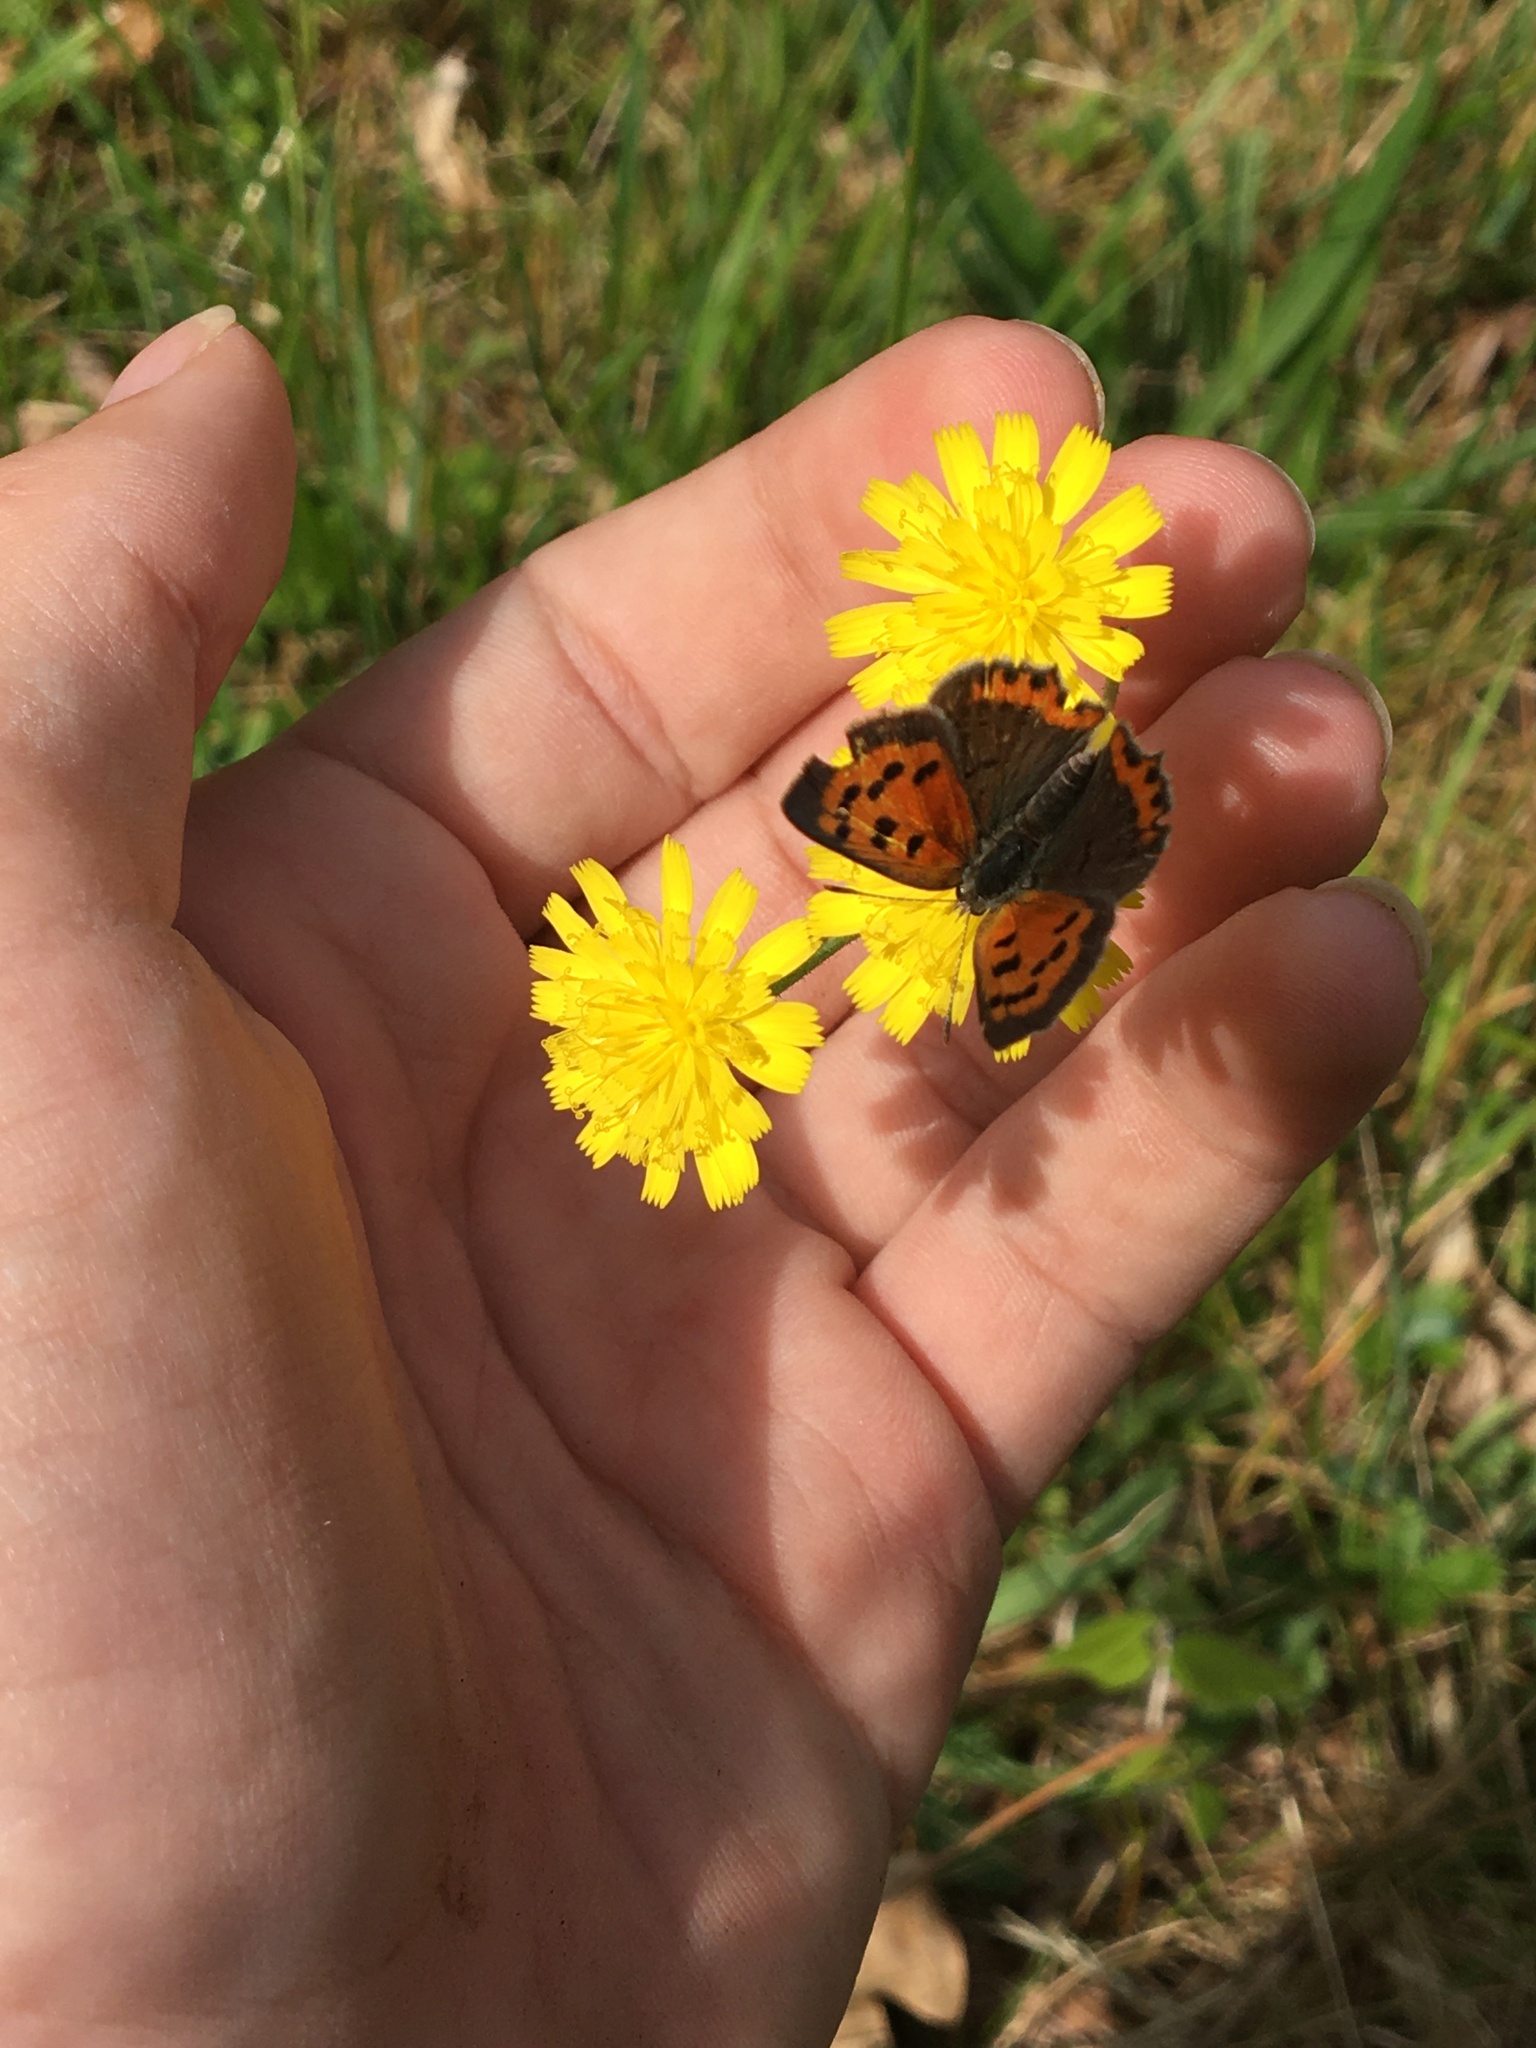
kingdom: Animalia
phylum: Arthropoda
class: Insecta
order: Lepidoptera
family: Lycaenidae
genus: Lycaena
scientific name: Lycaena hypophlaeas
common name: American copper
